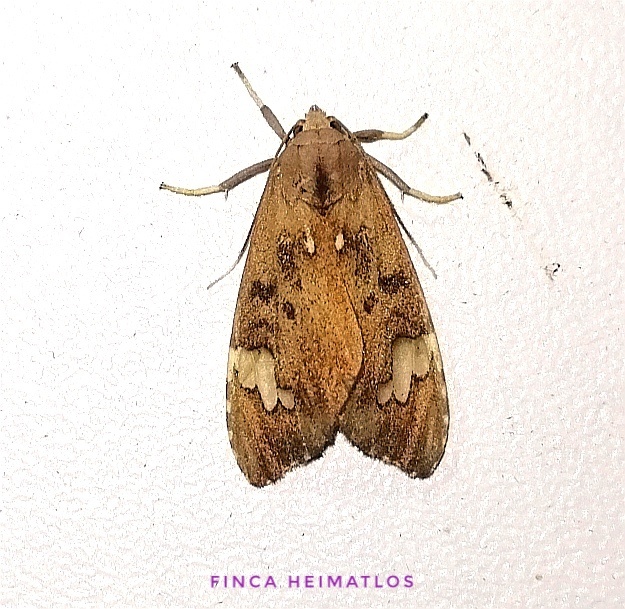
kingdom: Animalia
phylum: Arthropoda
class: Insecta
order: Lepidoptera
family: Erebidae
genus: Melese
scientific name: Melese babosa
